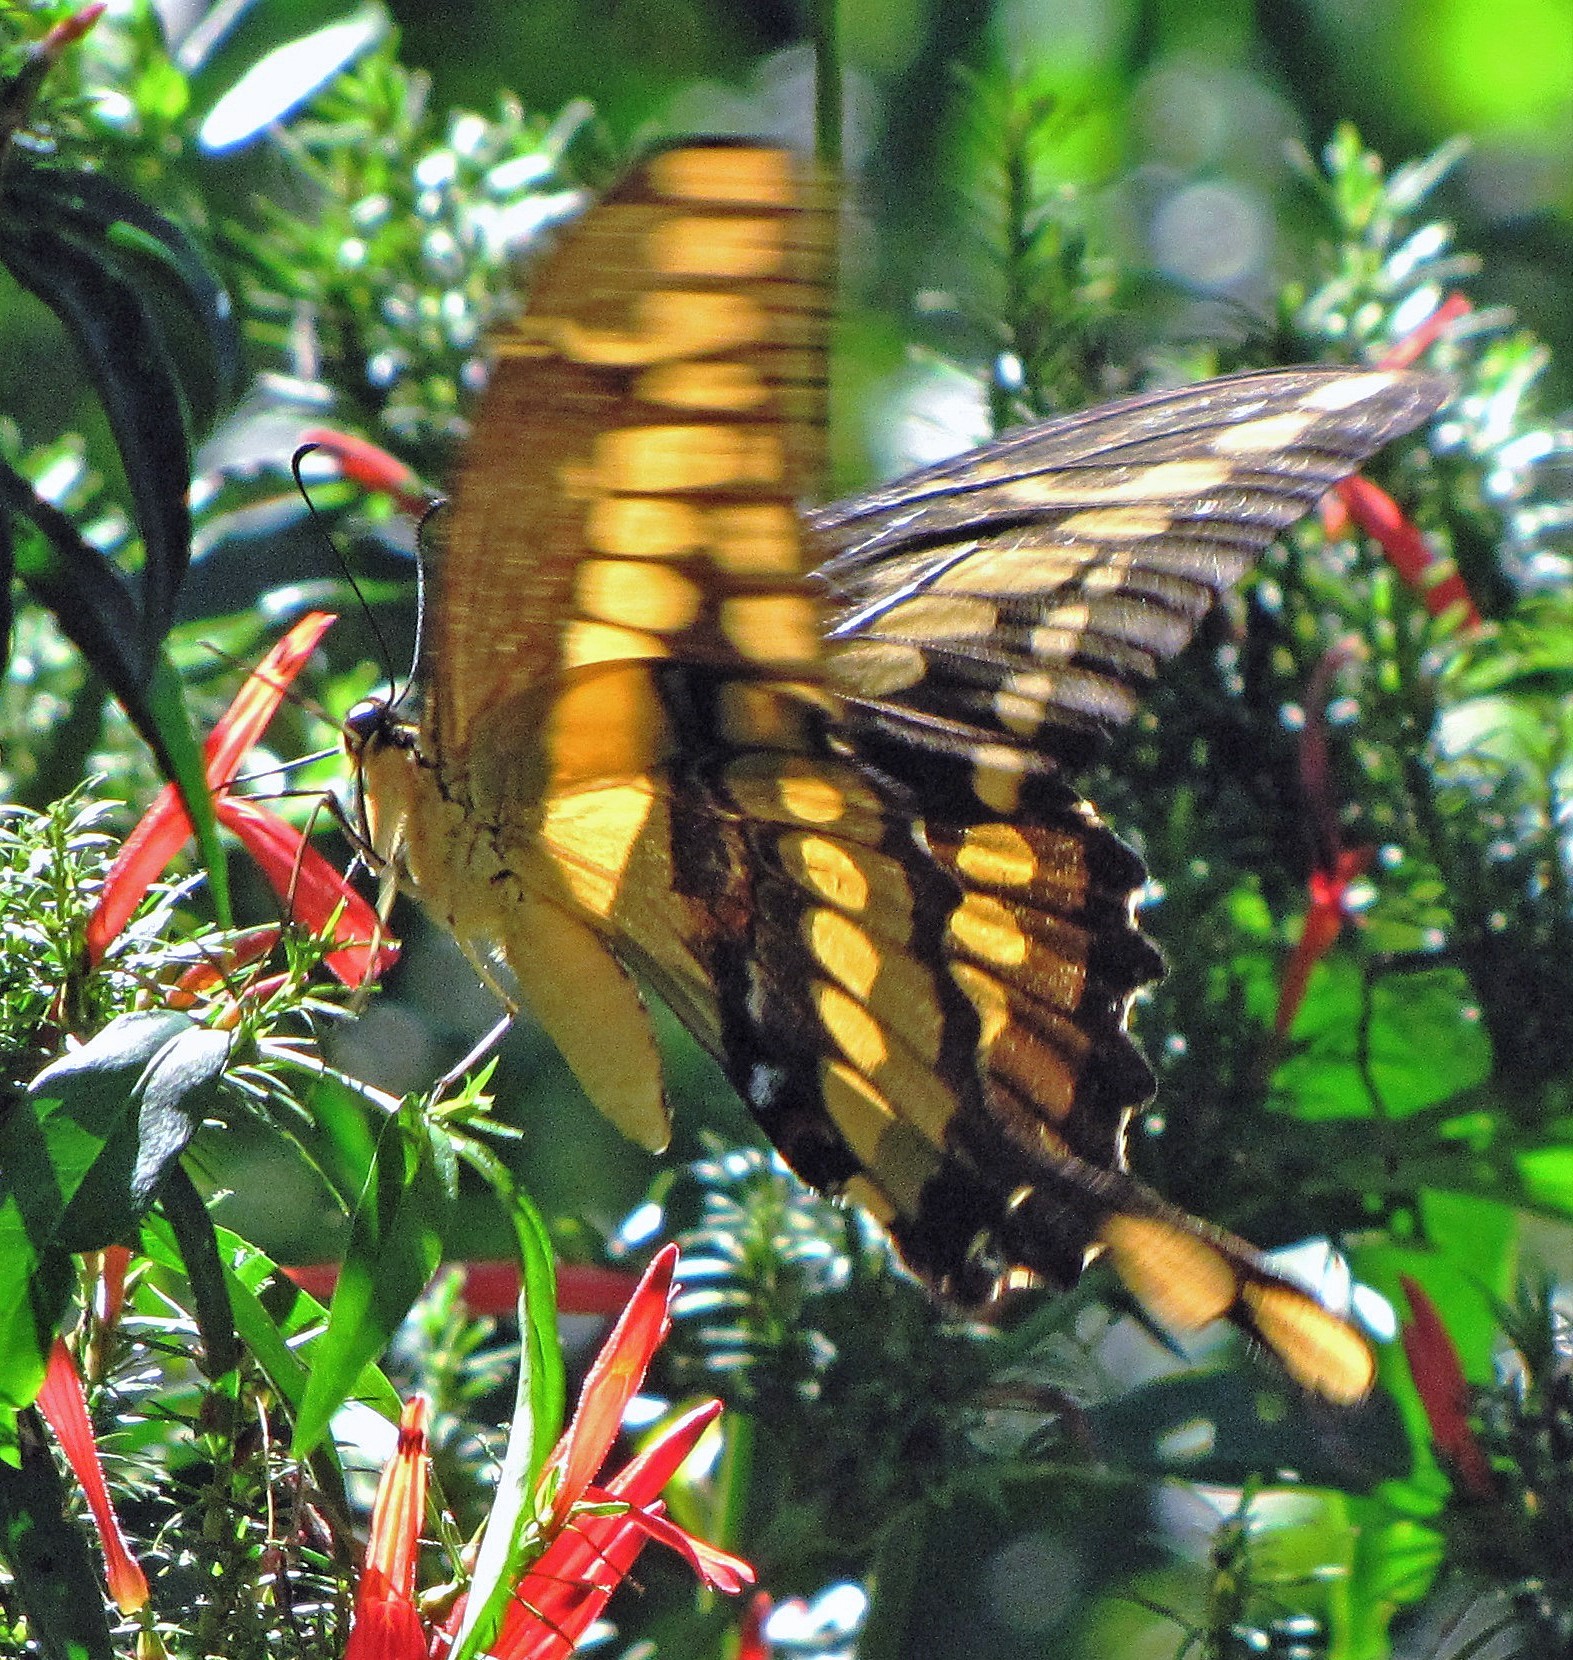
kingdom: Animalia
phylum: Arthropoda
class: Insecta
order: Lepidoptera
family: Papilionidae
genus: Papilio
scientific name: Papilio thoas
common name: King swallowtail
